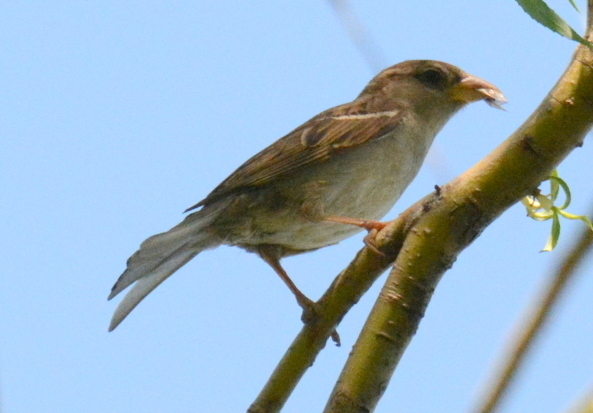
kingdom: Animalia
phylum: Chordata
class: Aves
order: Passeriformes
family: Passeridae
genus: Passer
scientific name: Passer domesticus
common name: House sparrow
